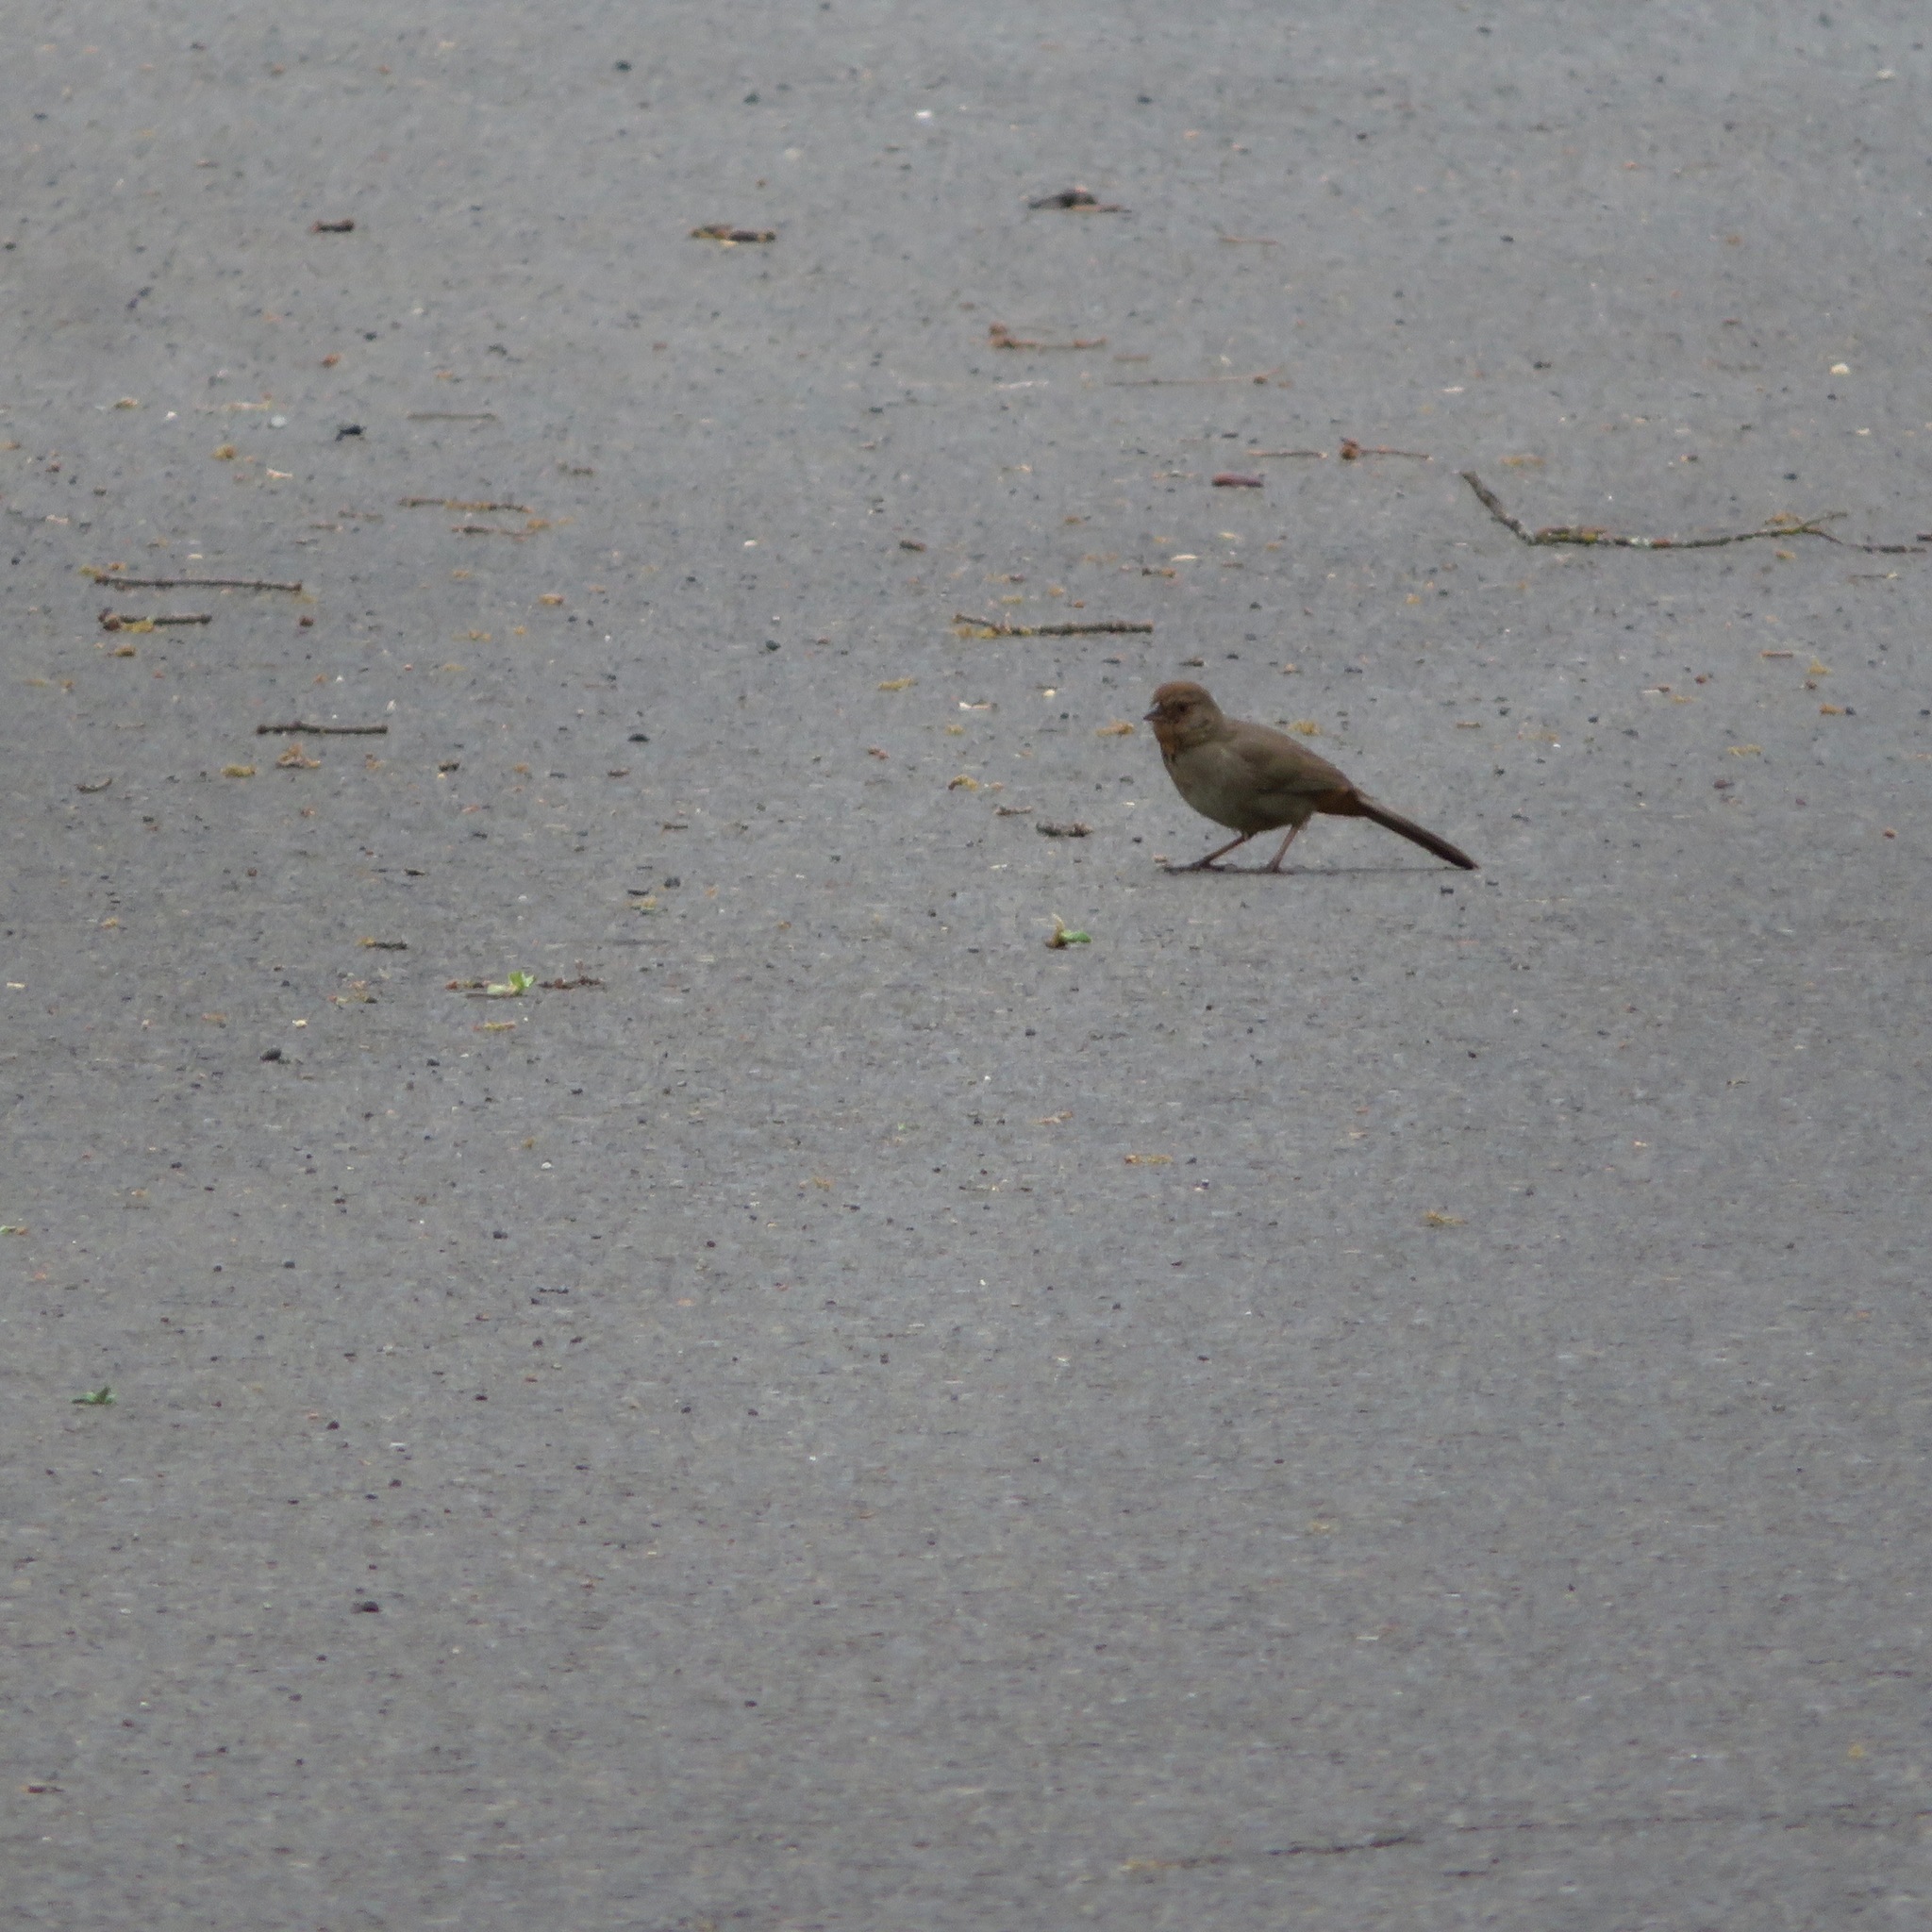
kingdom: Animalia
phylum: Chordata
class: Aves
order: Passeriformes
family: Passerellidae
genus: Melozone
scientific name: Melozone crissalis
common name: California towhee
